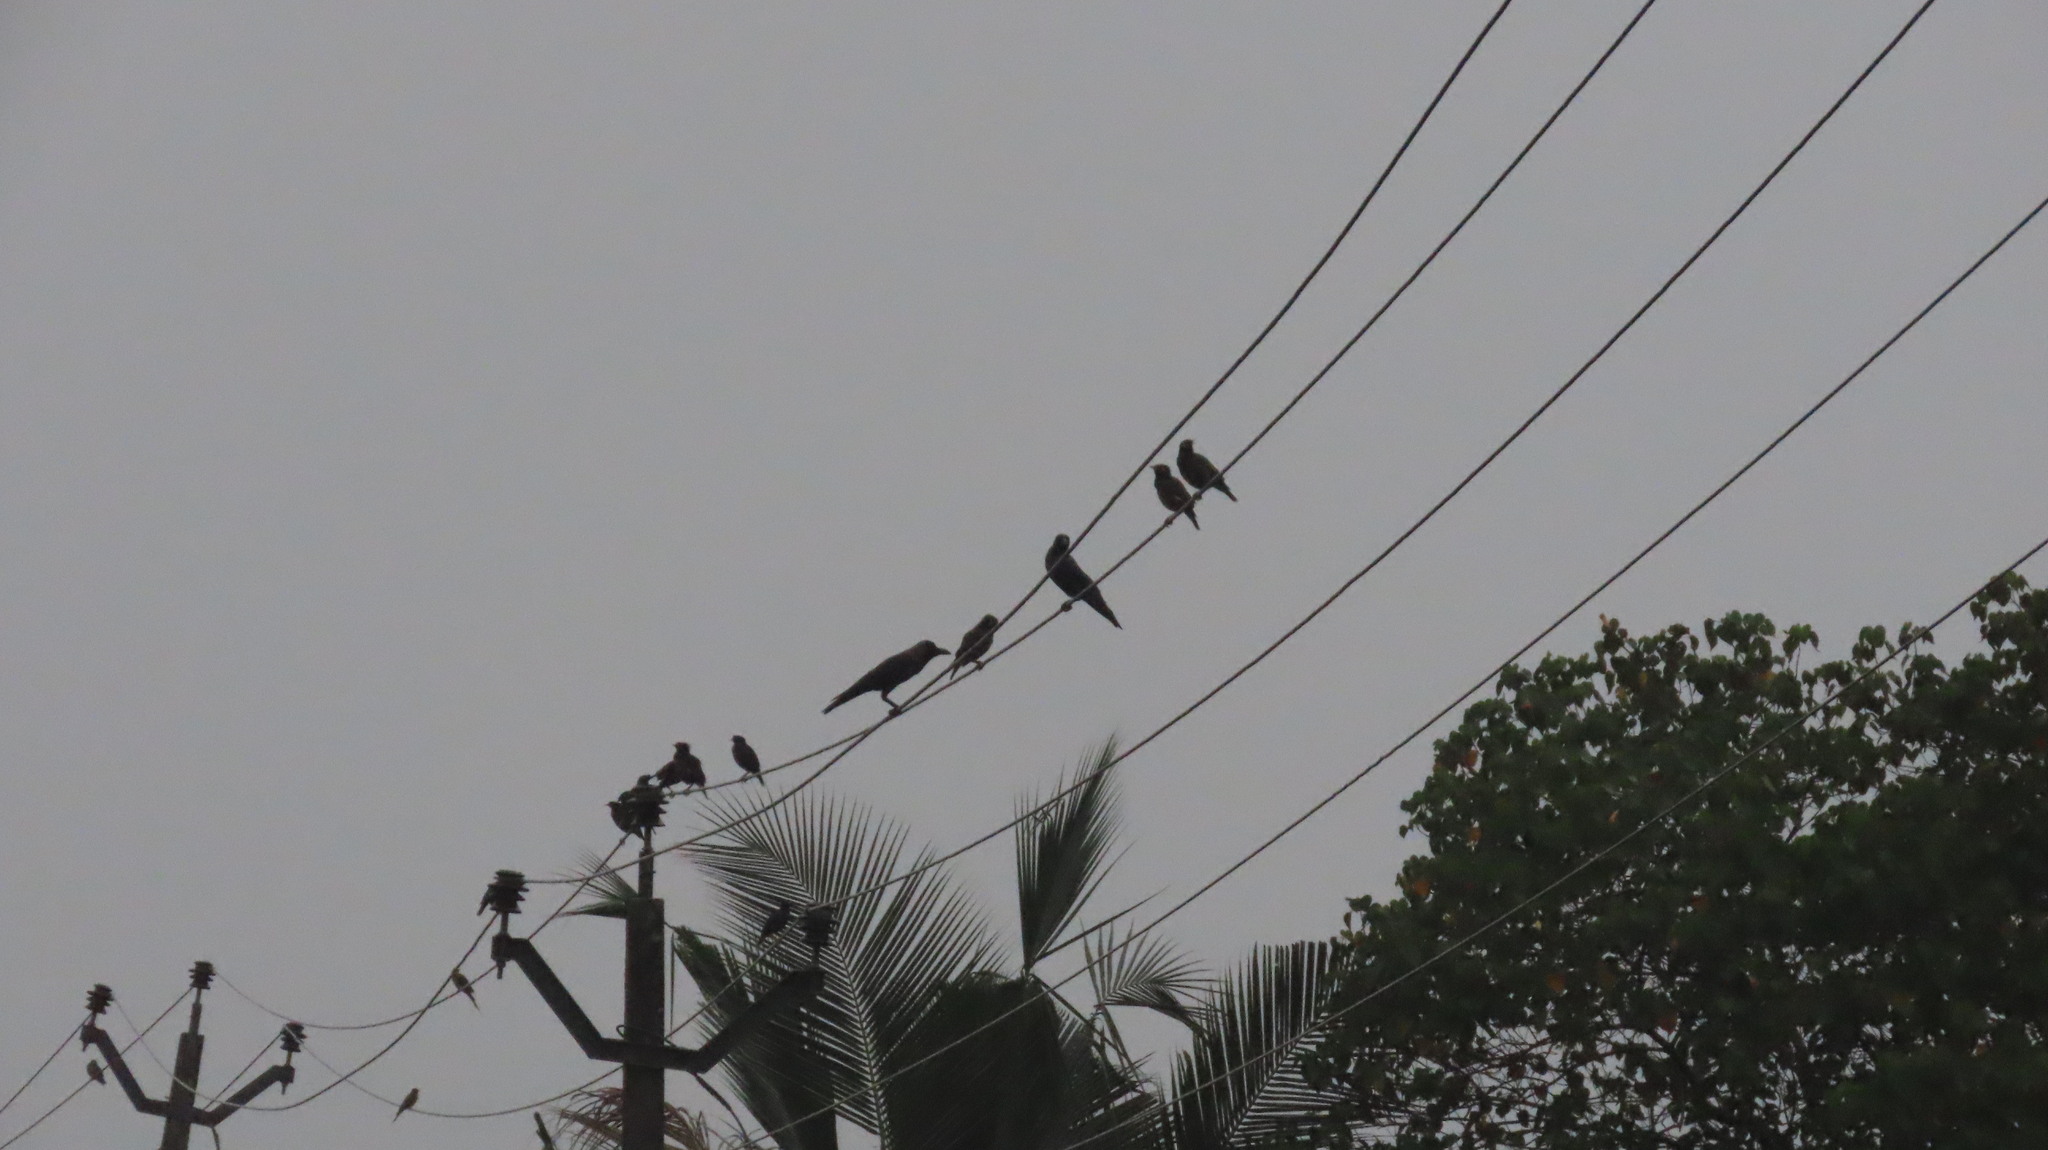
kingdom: Animalia
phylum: Chordata
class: Aves
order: Passeriformes
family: Sturnidae
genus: Acridotheres
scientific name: Acridotheres tristis
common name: Common myna
